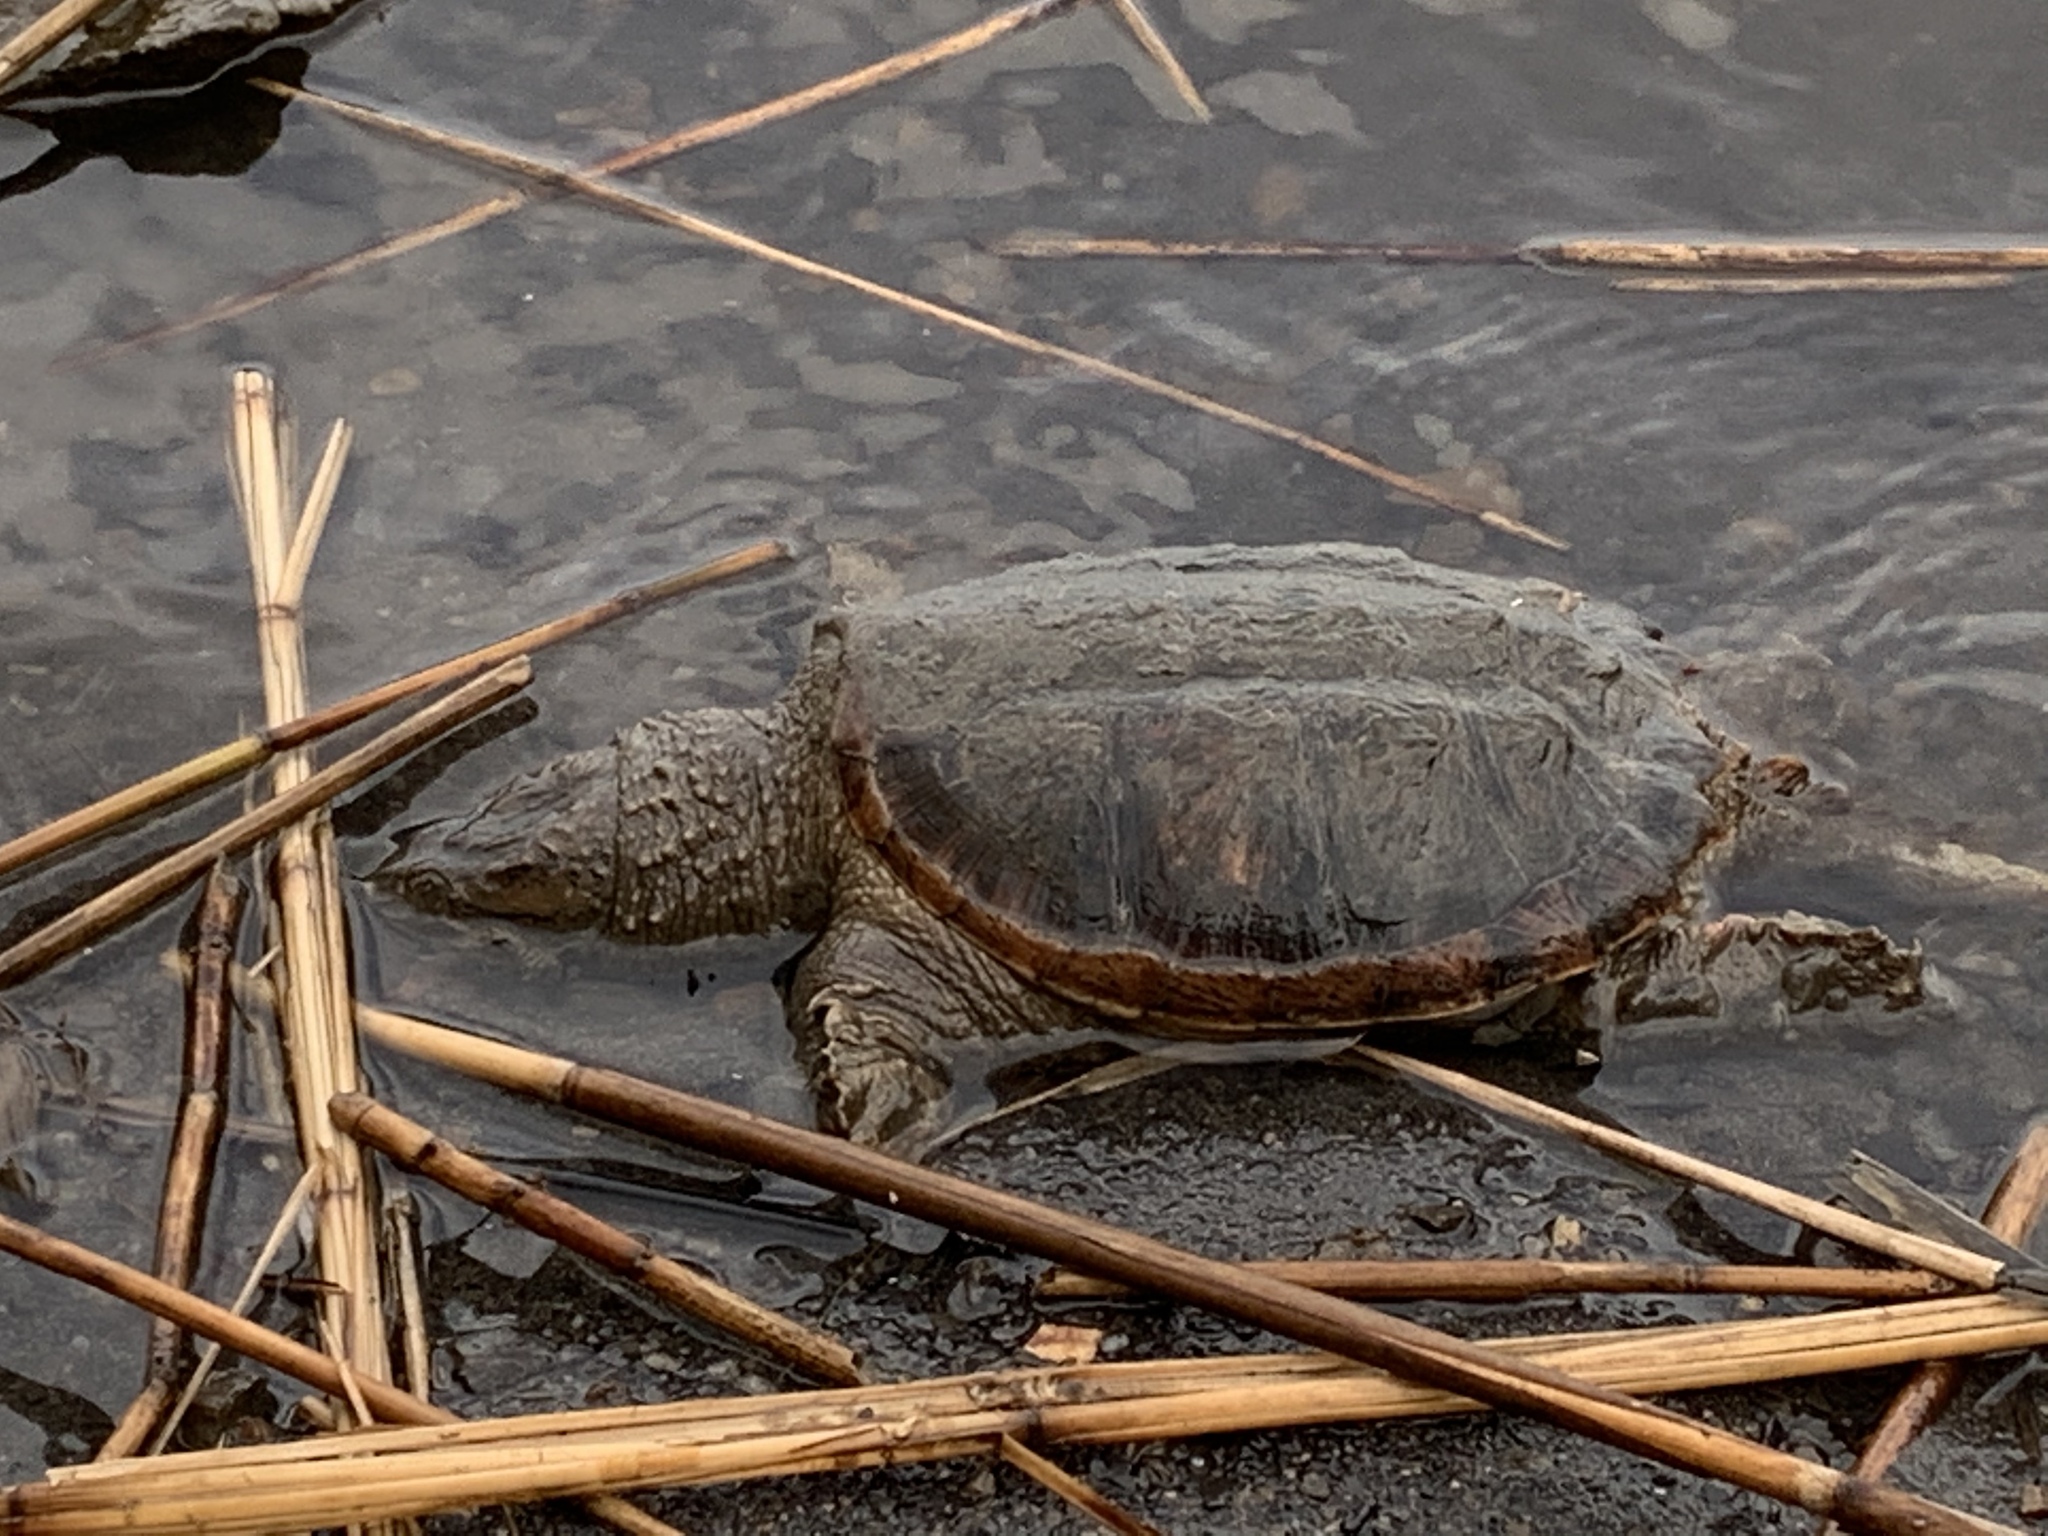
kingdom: Animalia
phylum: Chordata
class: Testudines
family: Chelydridae
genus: Chelydra
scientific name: Chelydra serpentina
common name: Common snapping turtle
